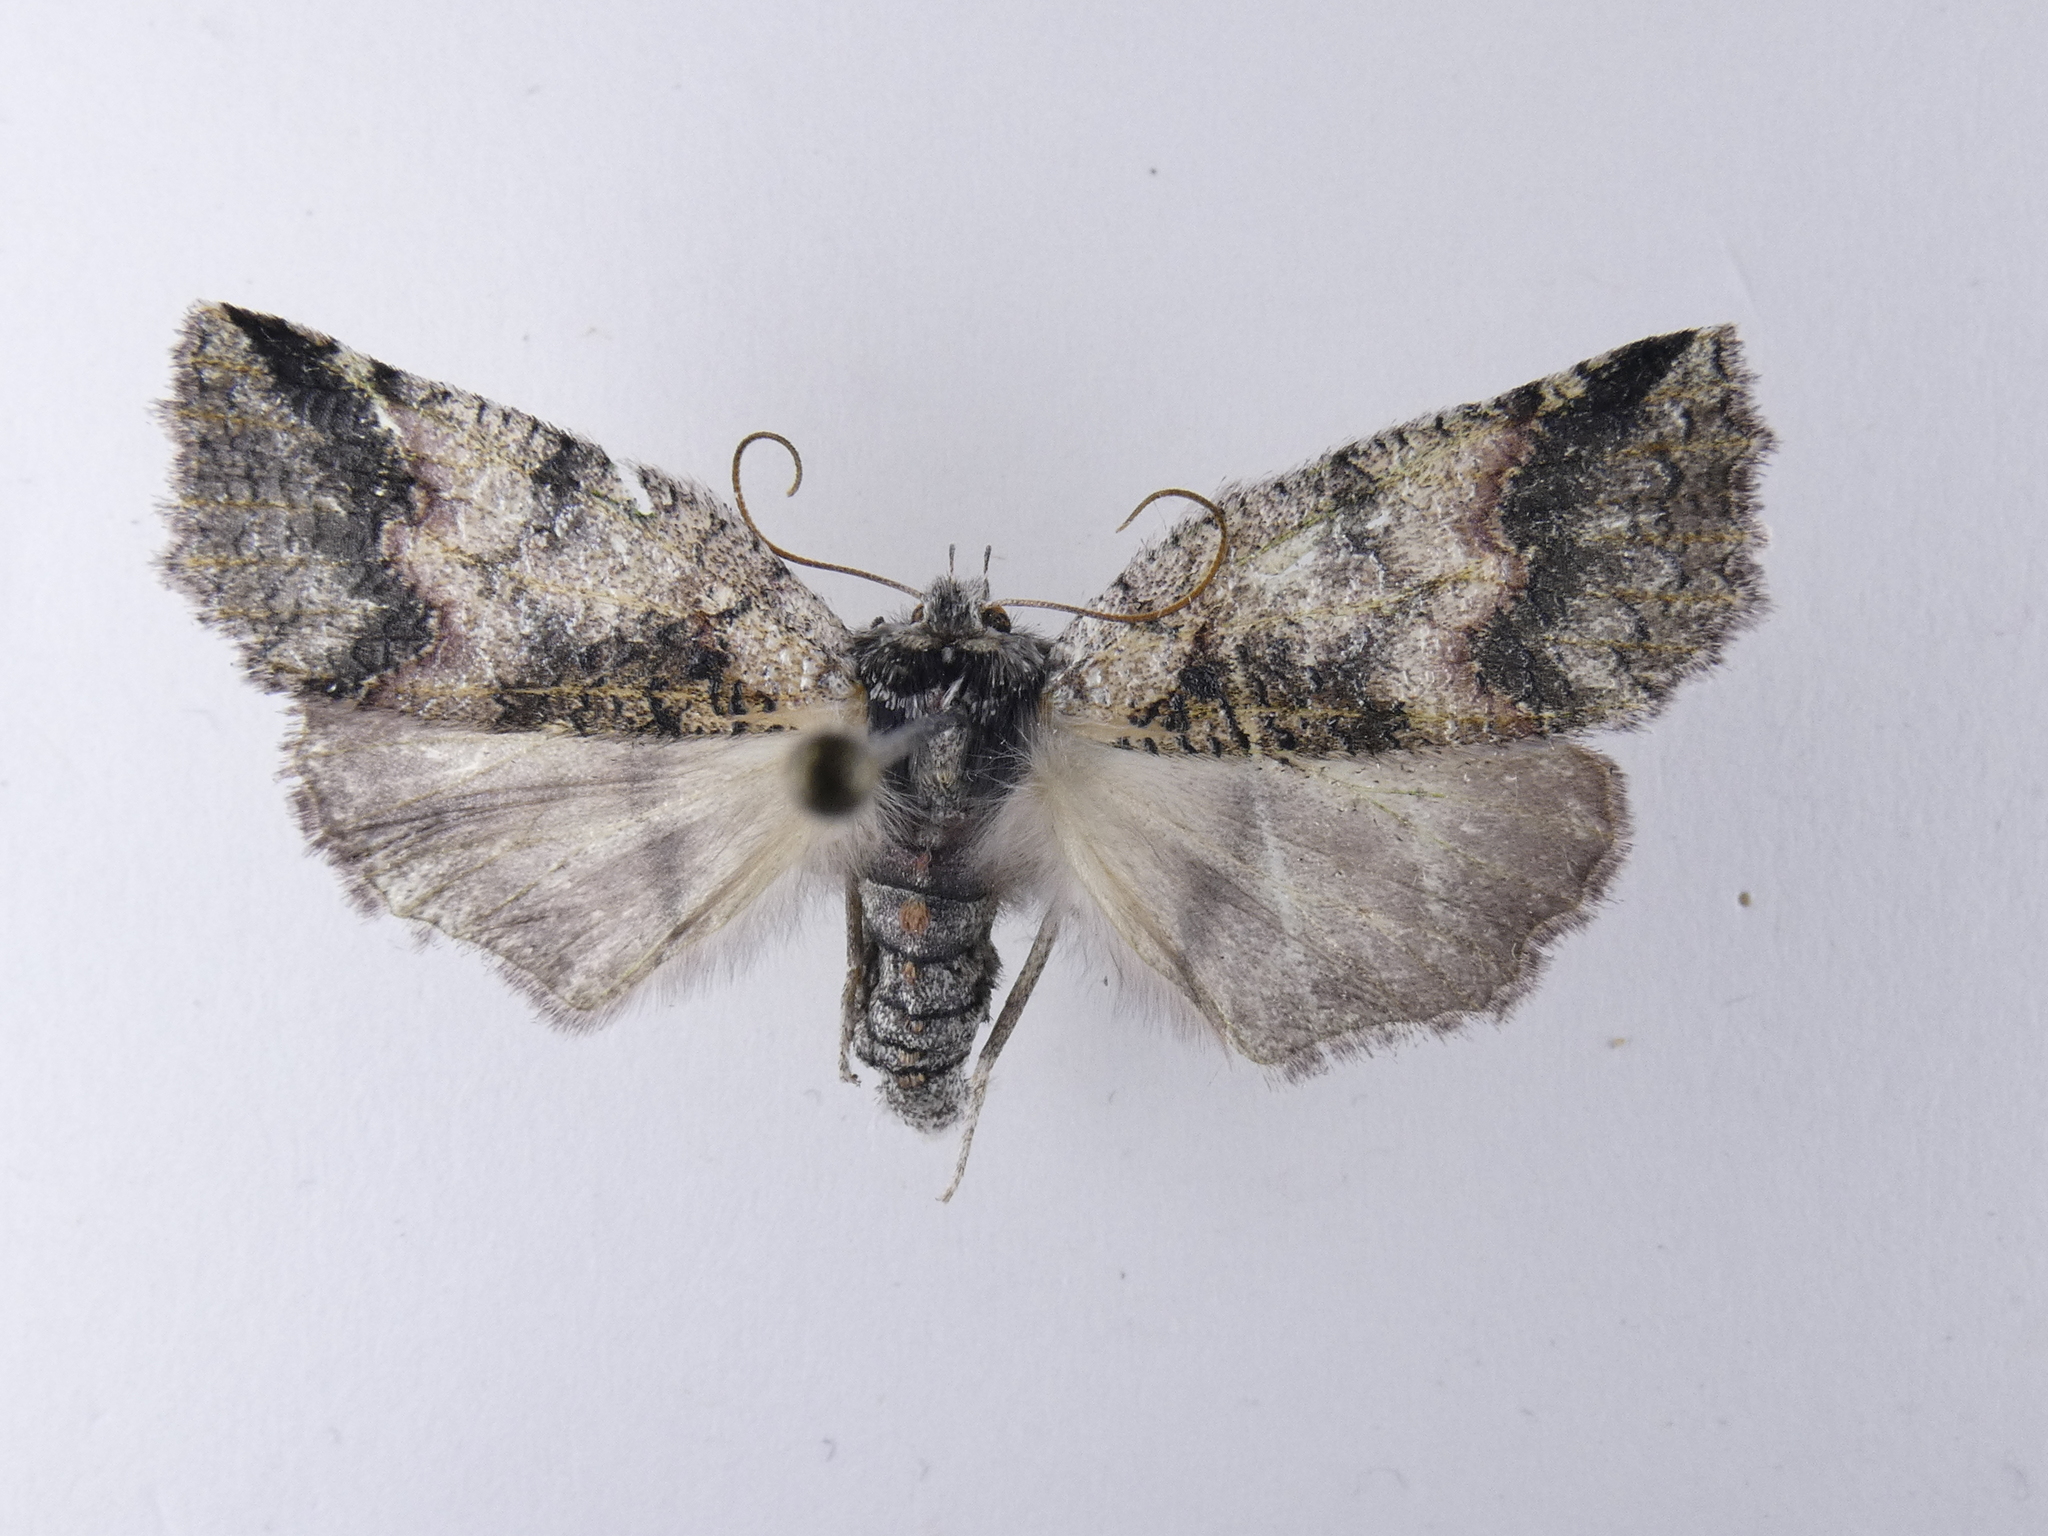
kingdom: Animalia
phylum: Arthropoda
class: Insecta
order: Lepidoptera
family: Geometridae
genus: Declana
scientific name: Declana floccosa
